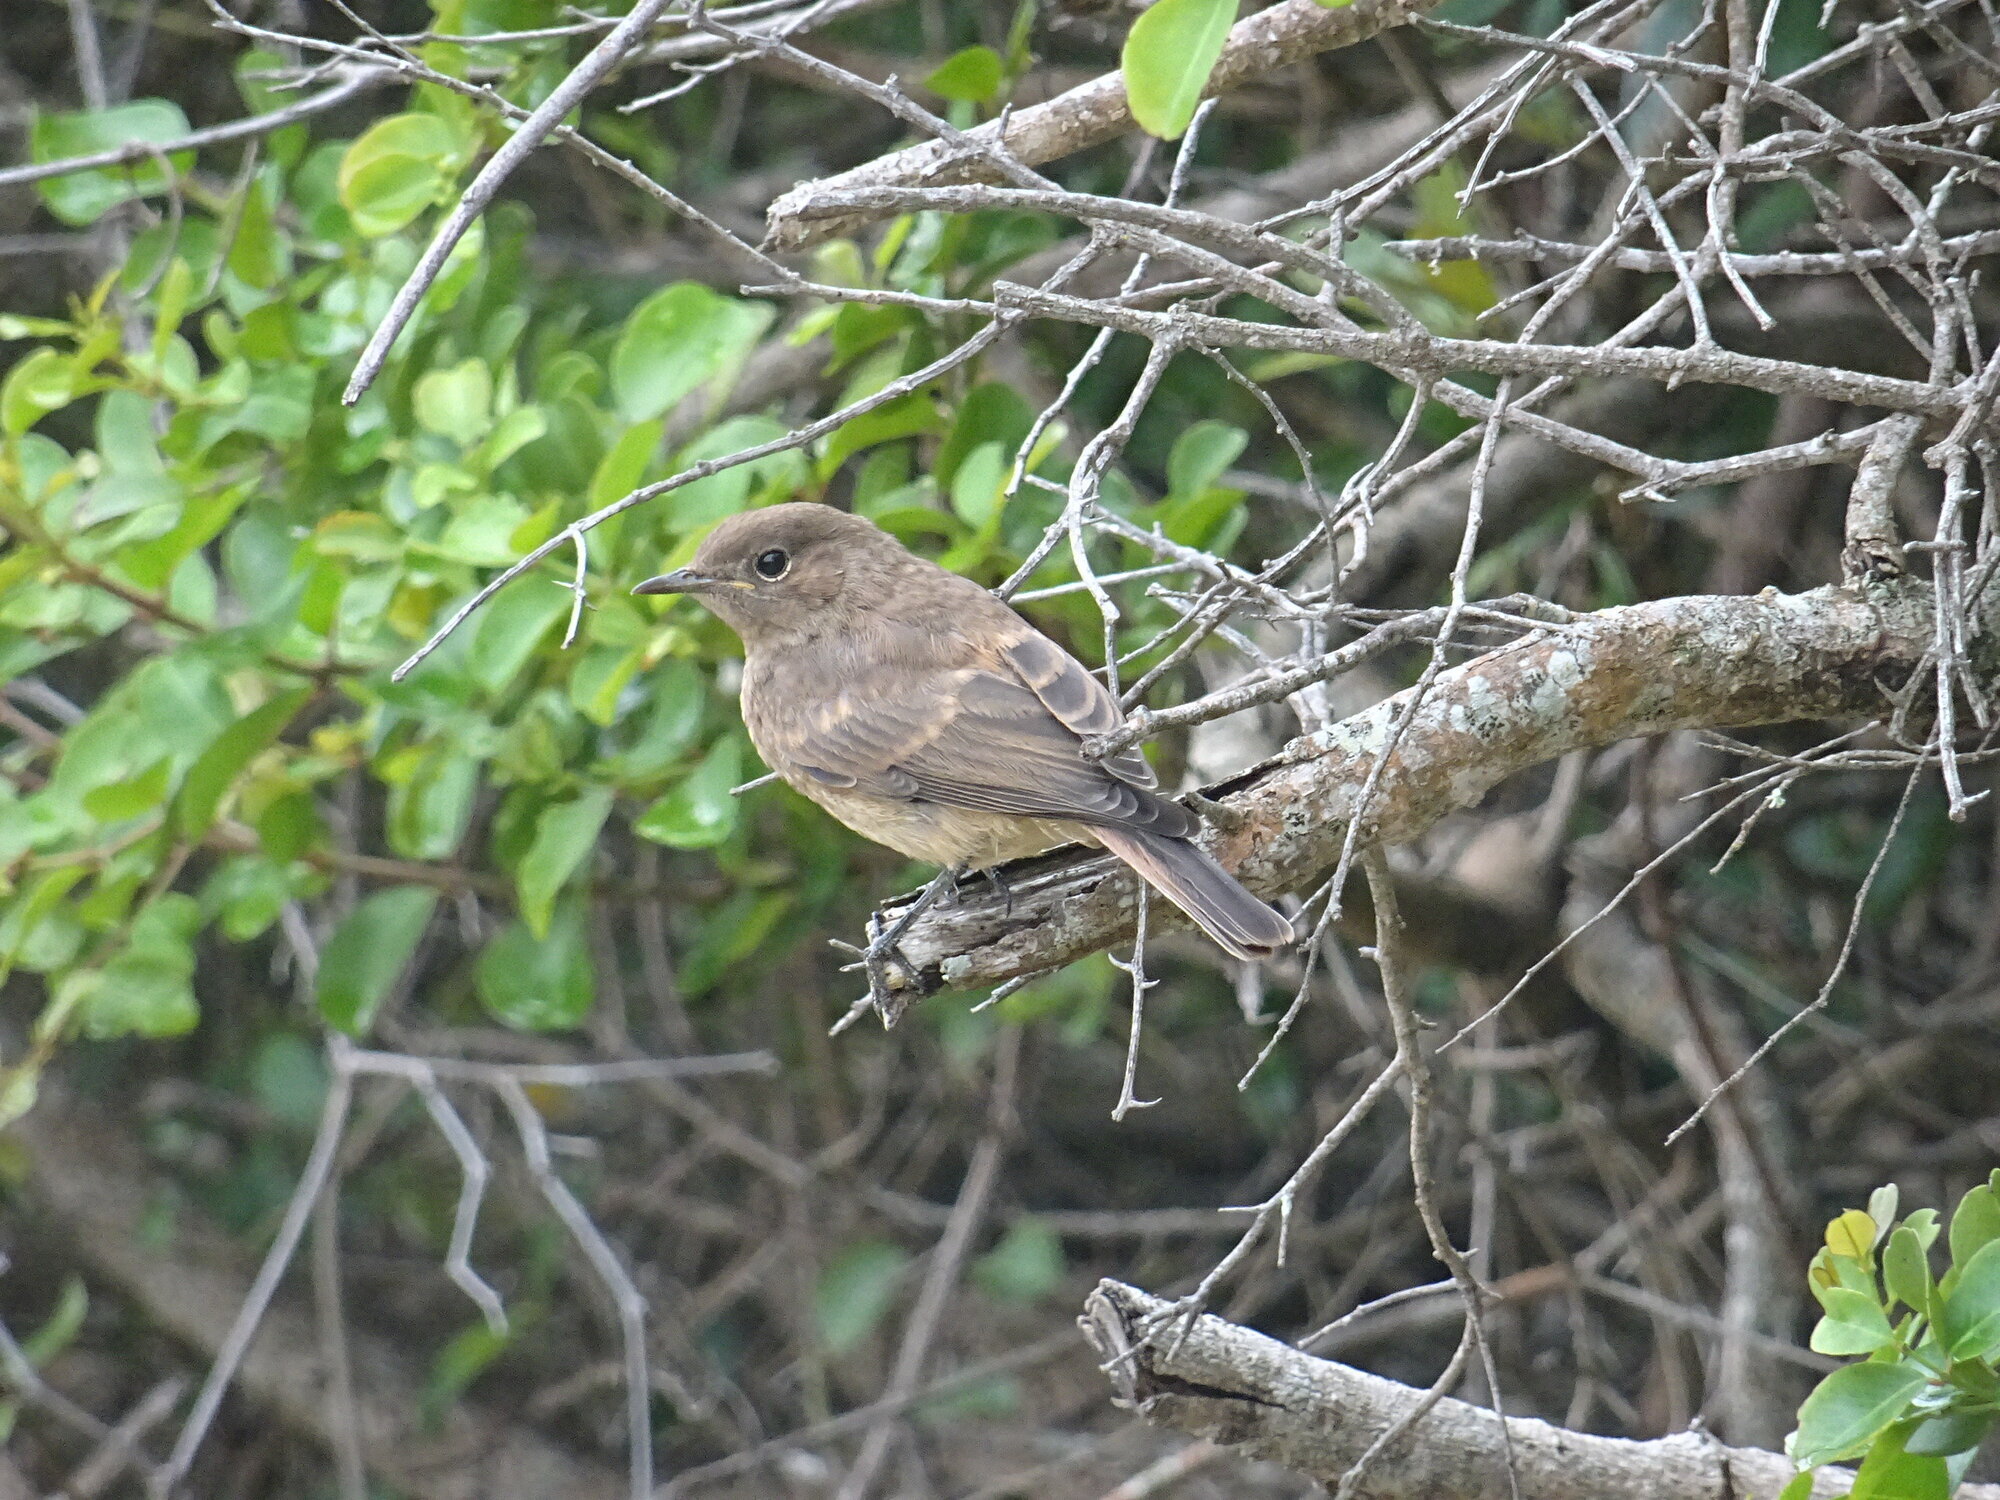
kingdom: Animalia
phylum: Chordata
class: Aves
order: Passeriformes
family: Muscicapidae
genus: Oenanthe
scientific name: Oenanthe familiaris
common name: Familiar chat
